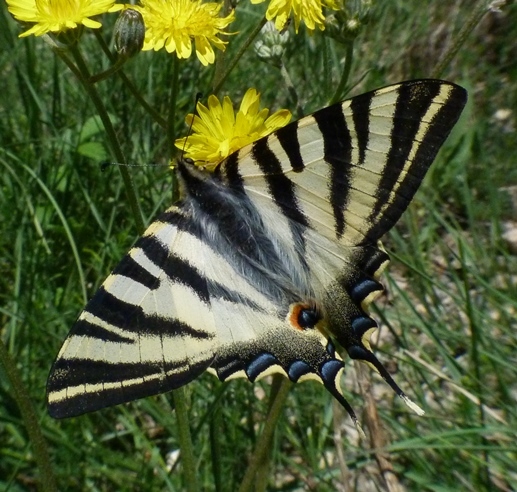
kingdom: Animalia
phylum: Arthropoda
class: Insecta
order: Lepidoptera
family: Papilionidae
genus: Iphiclides
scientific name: Iphiclides feisthamelii
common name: Iberian scarce swallowtail
